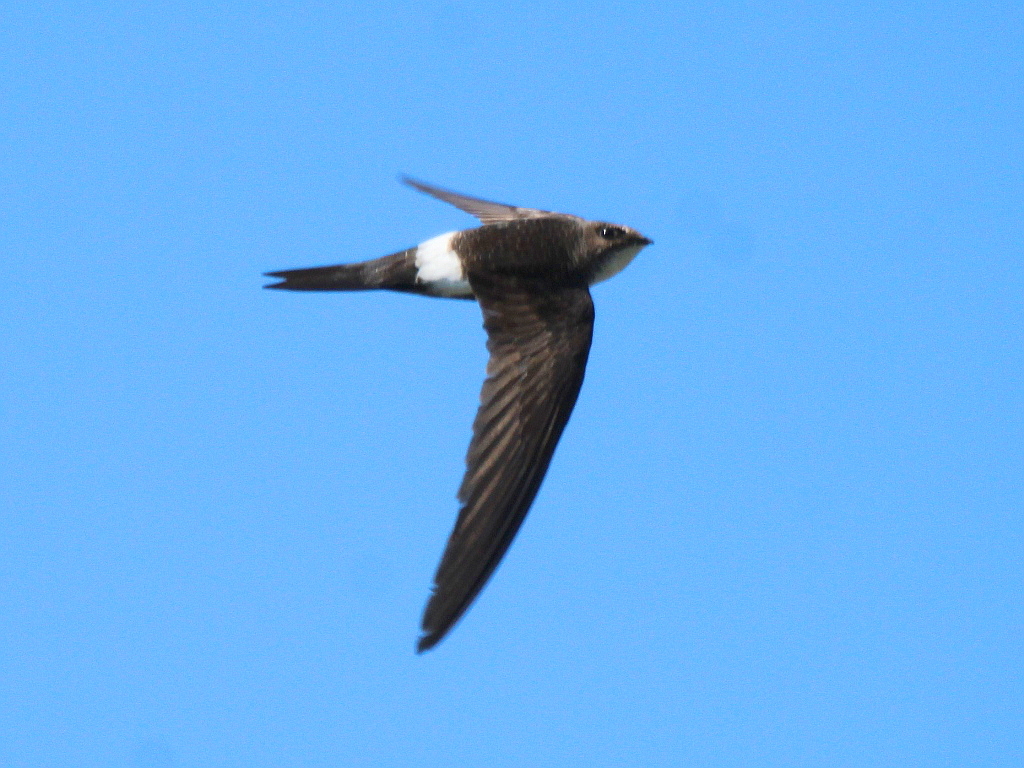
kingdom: Animalia
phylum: Chordata
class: Aves
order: Apodiformes
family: Apodidae
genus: Apus
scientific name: Apus pacificus
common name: Pacific swift
